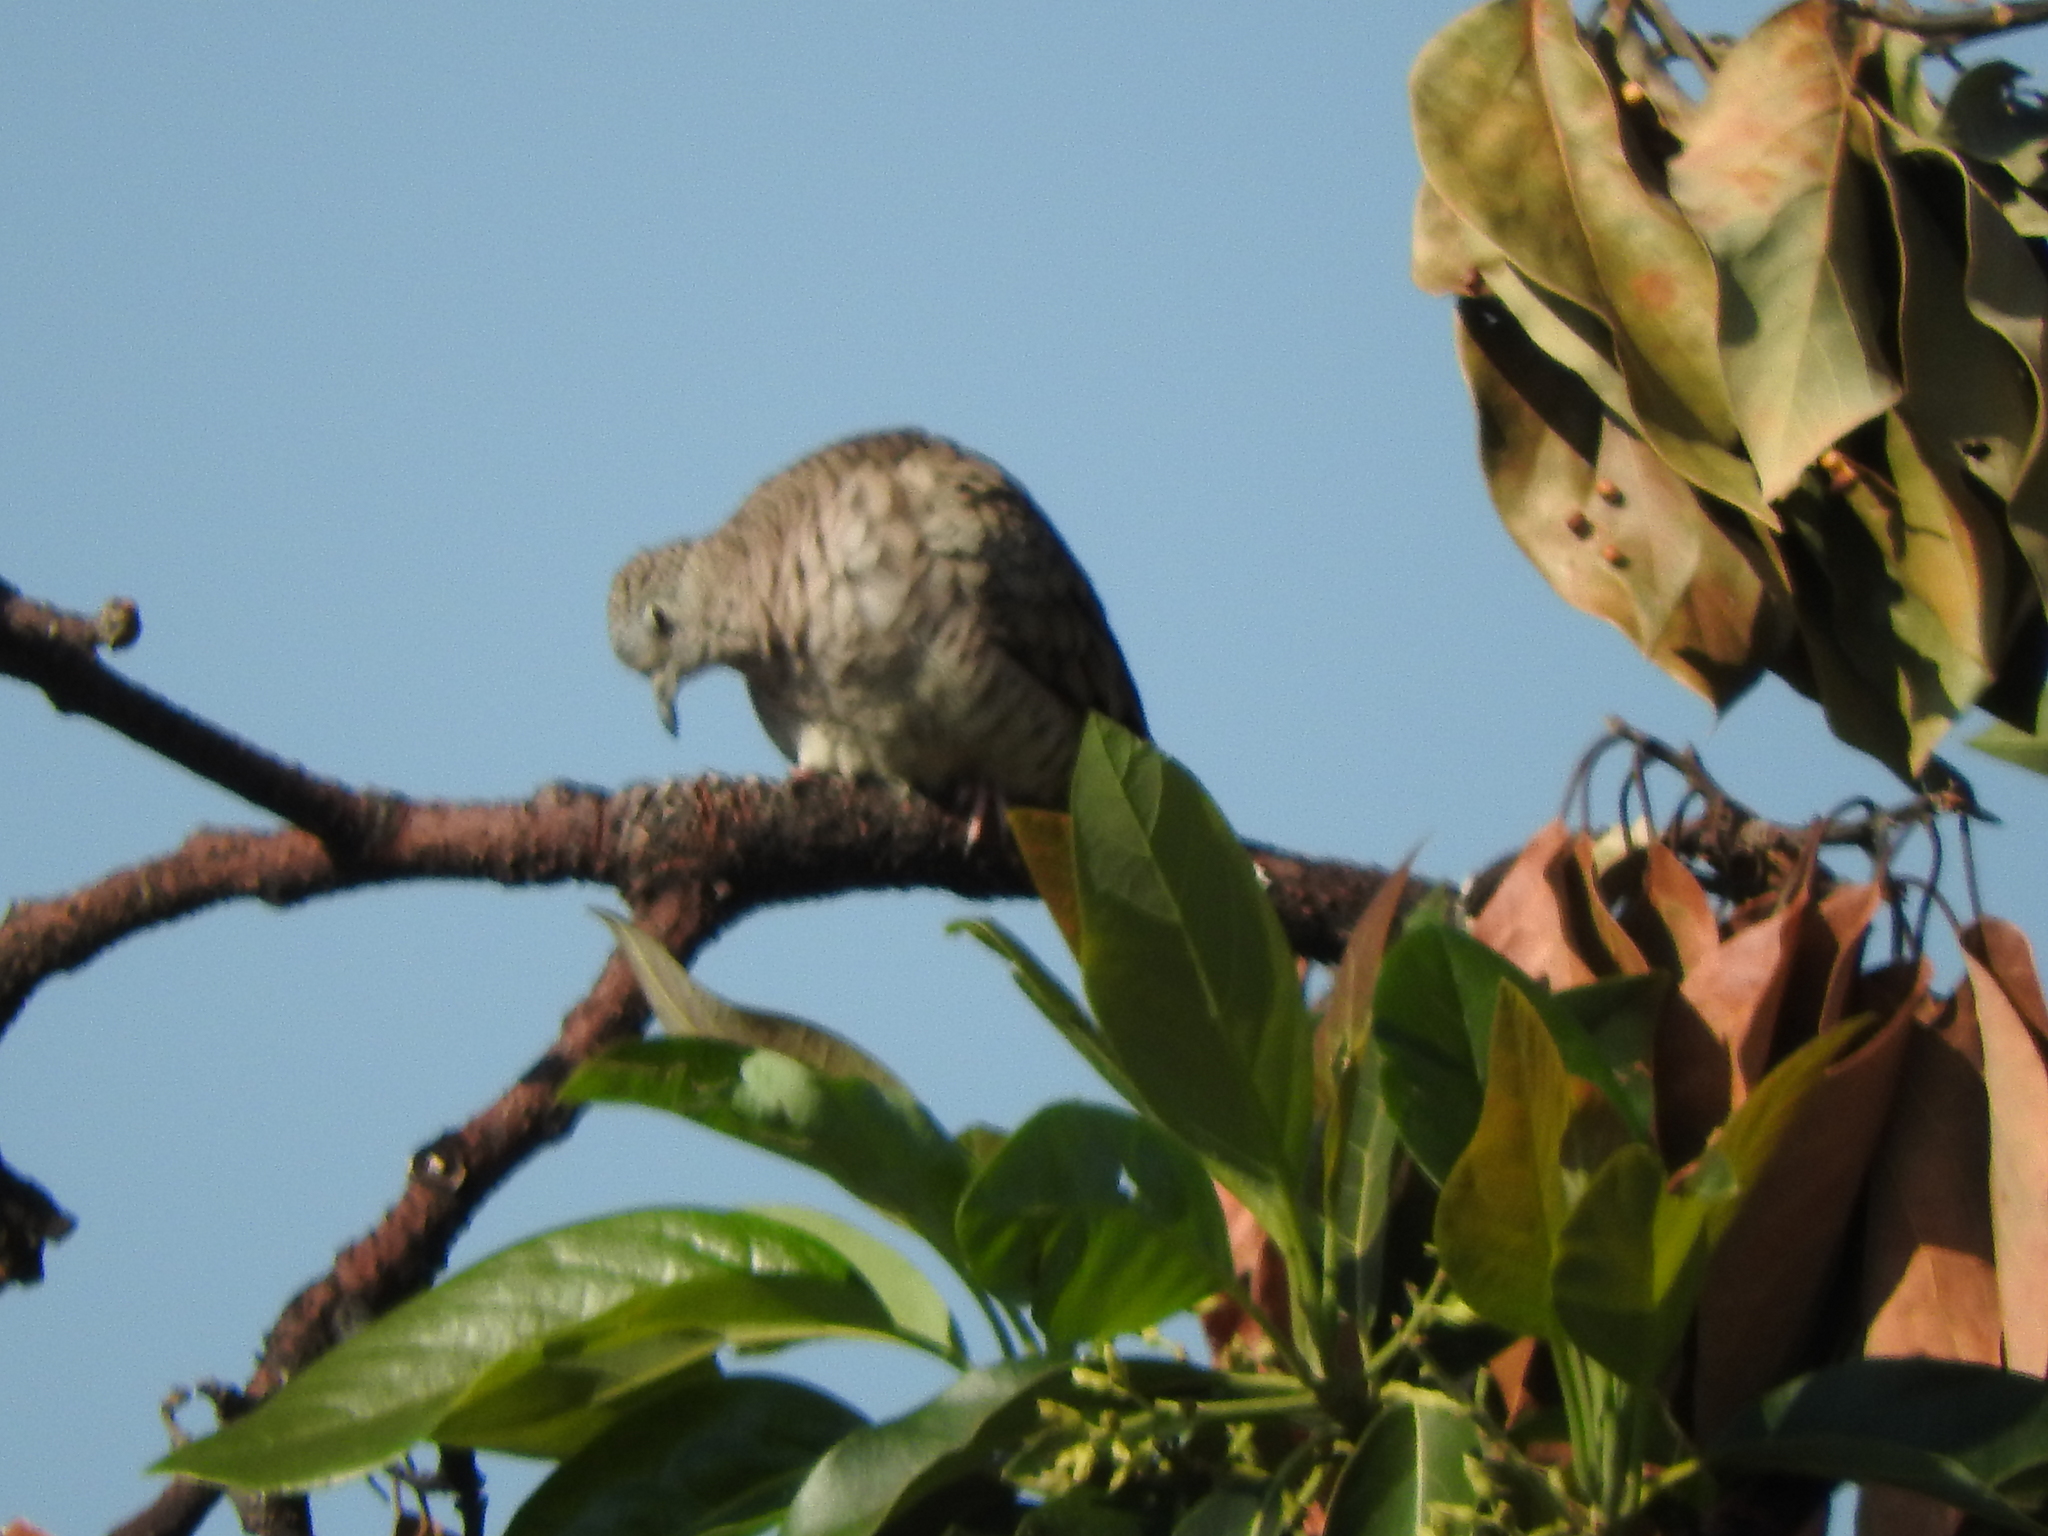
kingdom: Animalia
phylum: Chordata
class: Aves
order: Columbiformes
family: Columbidae
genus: Columbina
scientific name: Columbina inca
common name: Inca dove
